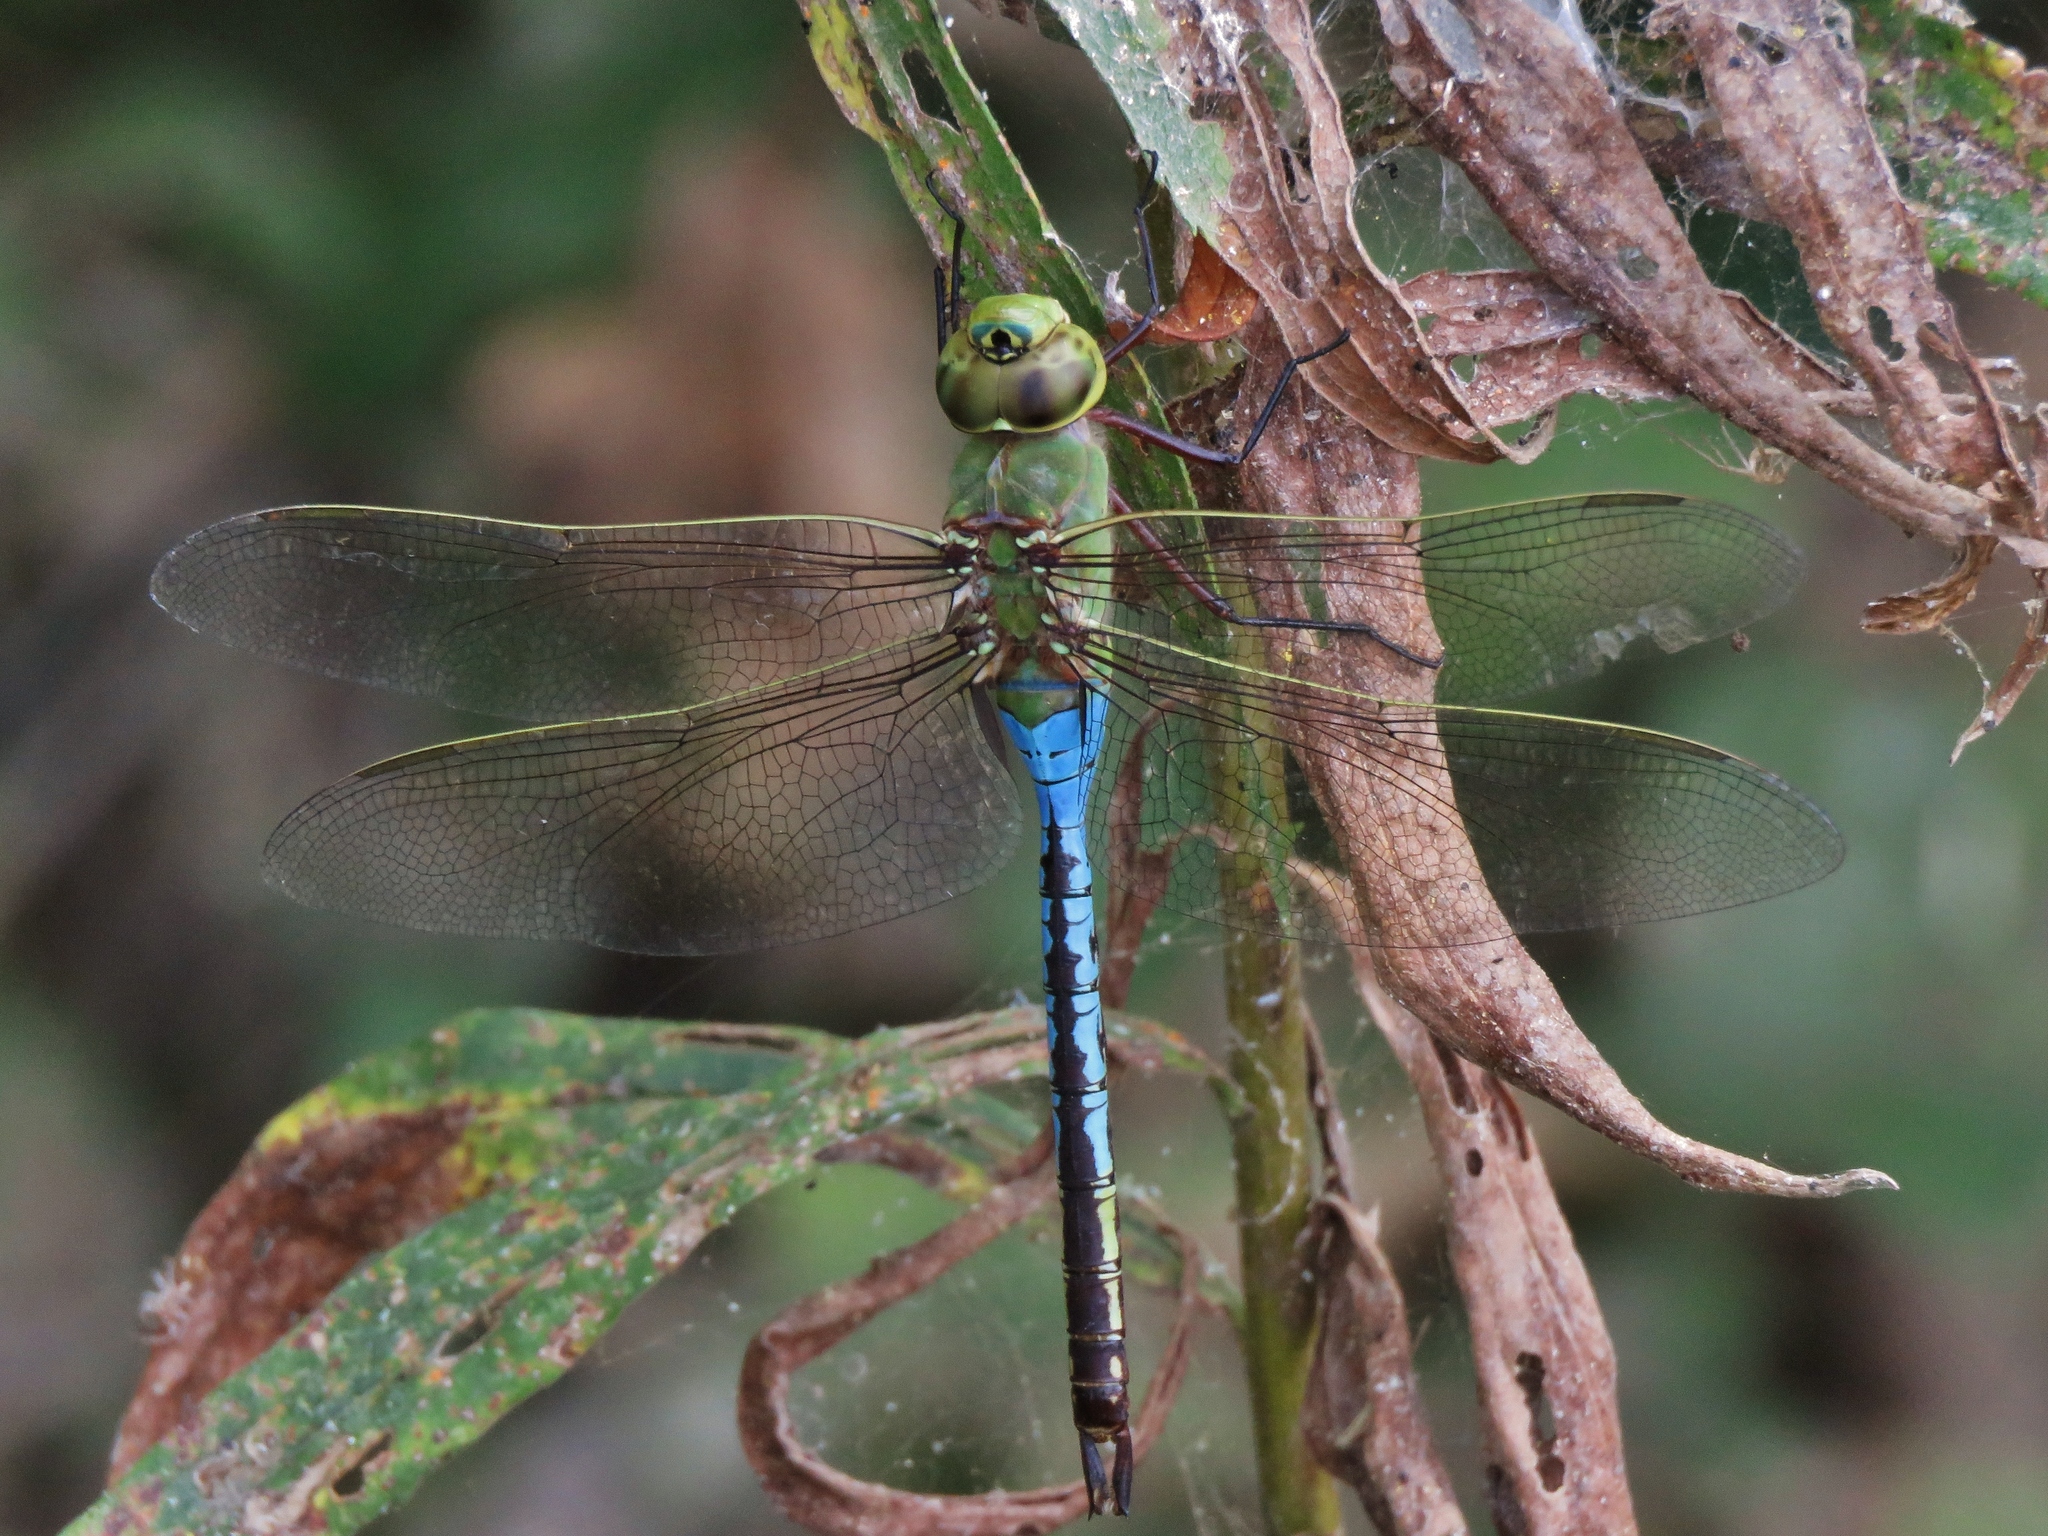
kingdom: Animalia
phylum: Arthropoda
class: Insecta
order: Odonata
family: Aeshnidae
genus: Anax
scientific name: Anax junius
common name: Common green darner
